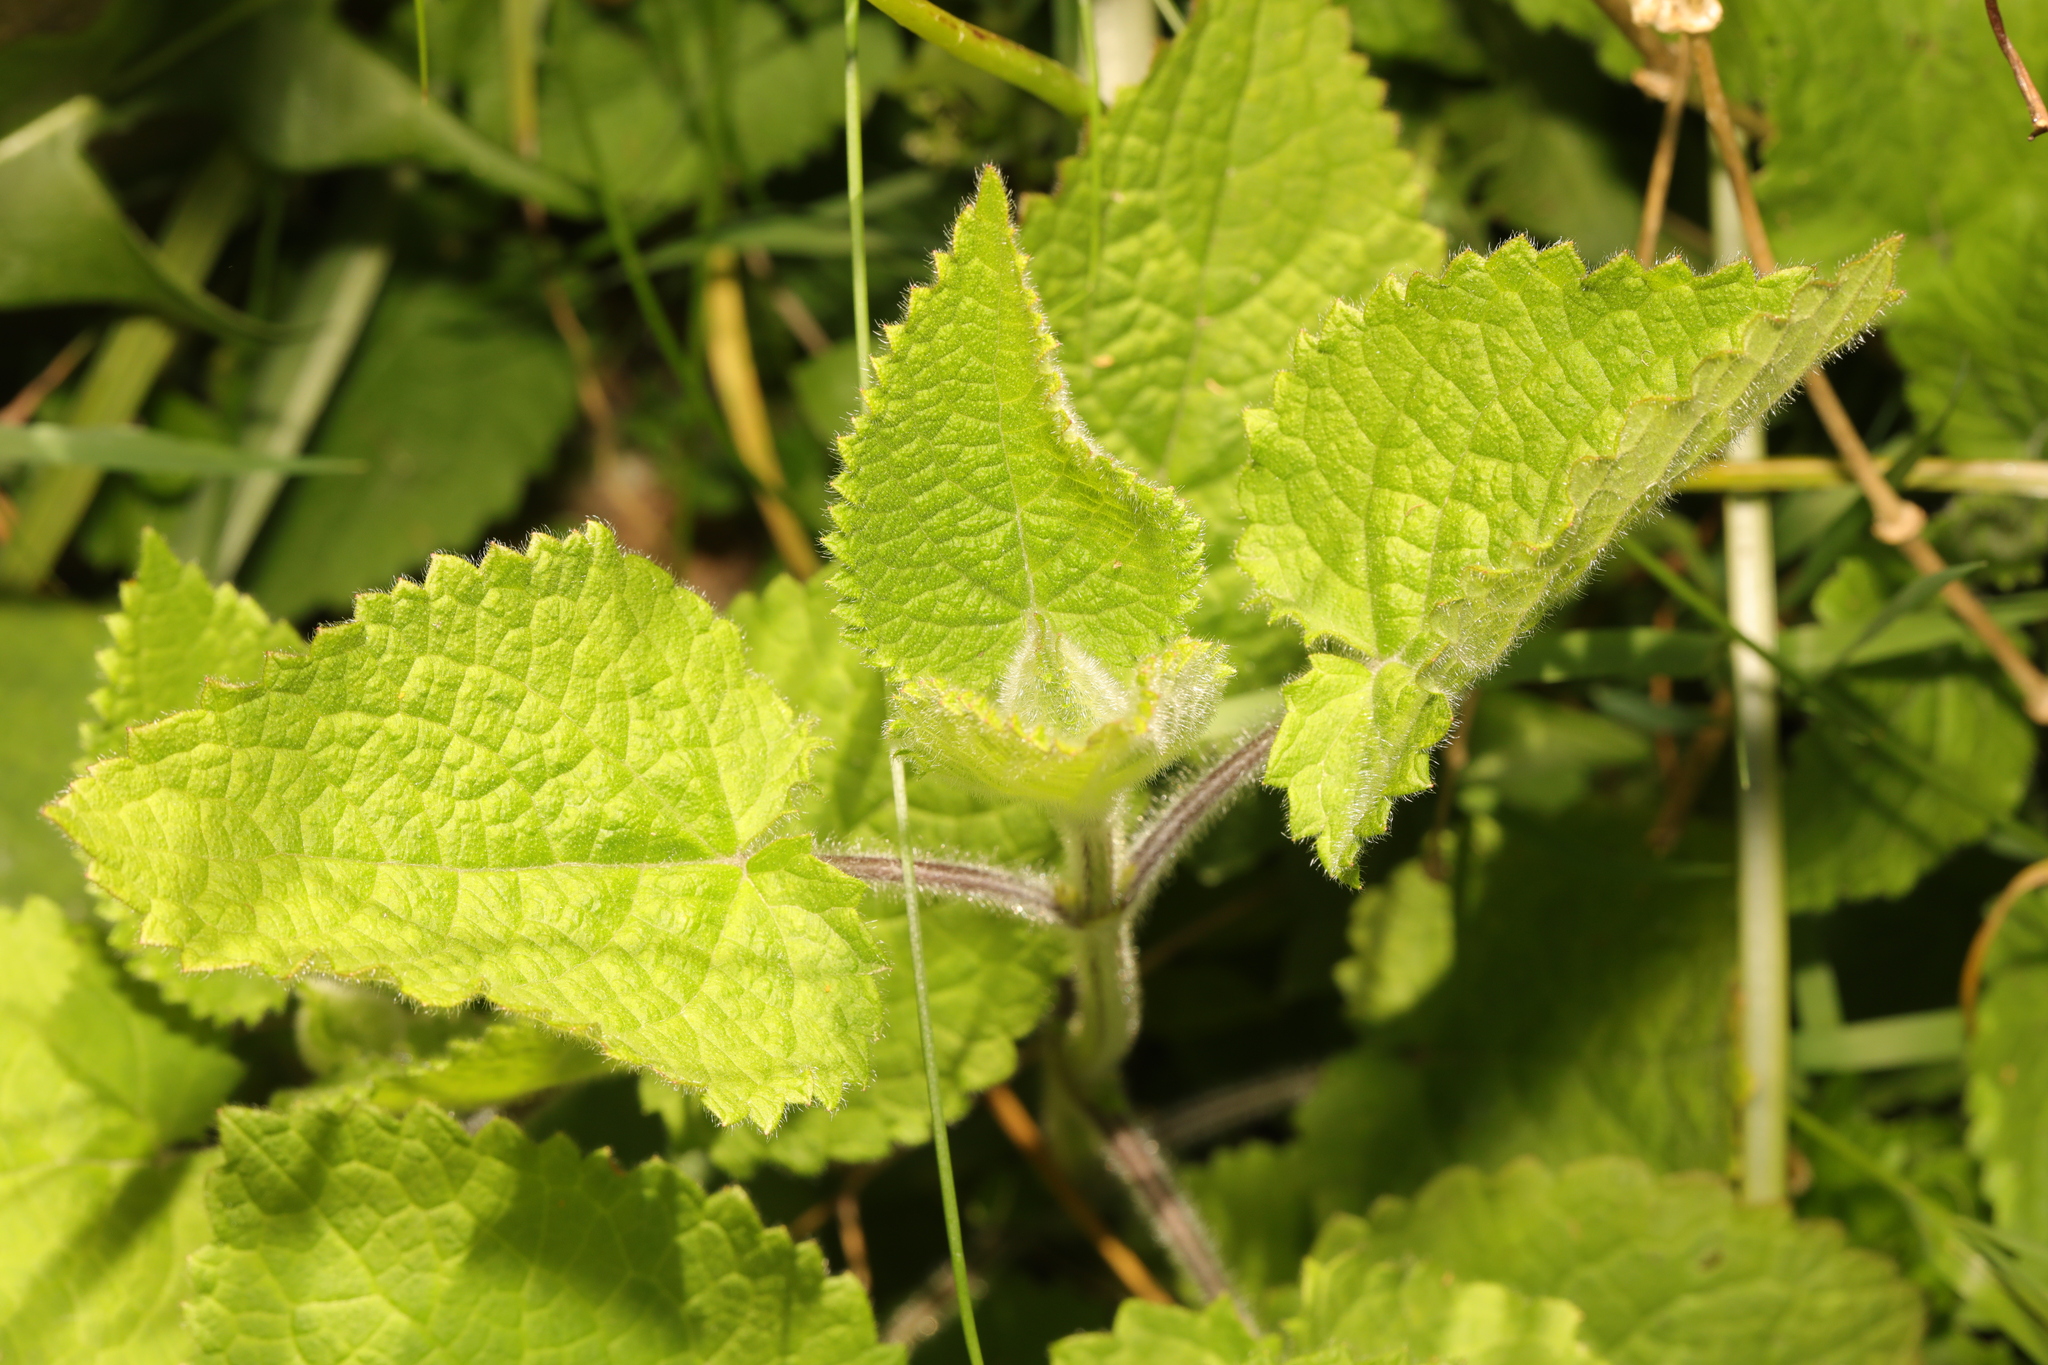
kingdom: Plantae
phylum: Tracheophyta
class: Magnoliopsida
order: Lamiales
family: Lamiaceae
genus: Stachys
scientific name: Stachys sylvatica
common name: Hedge woundwort
